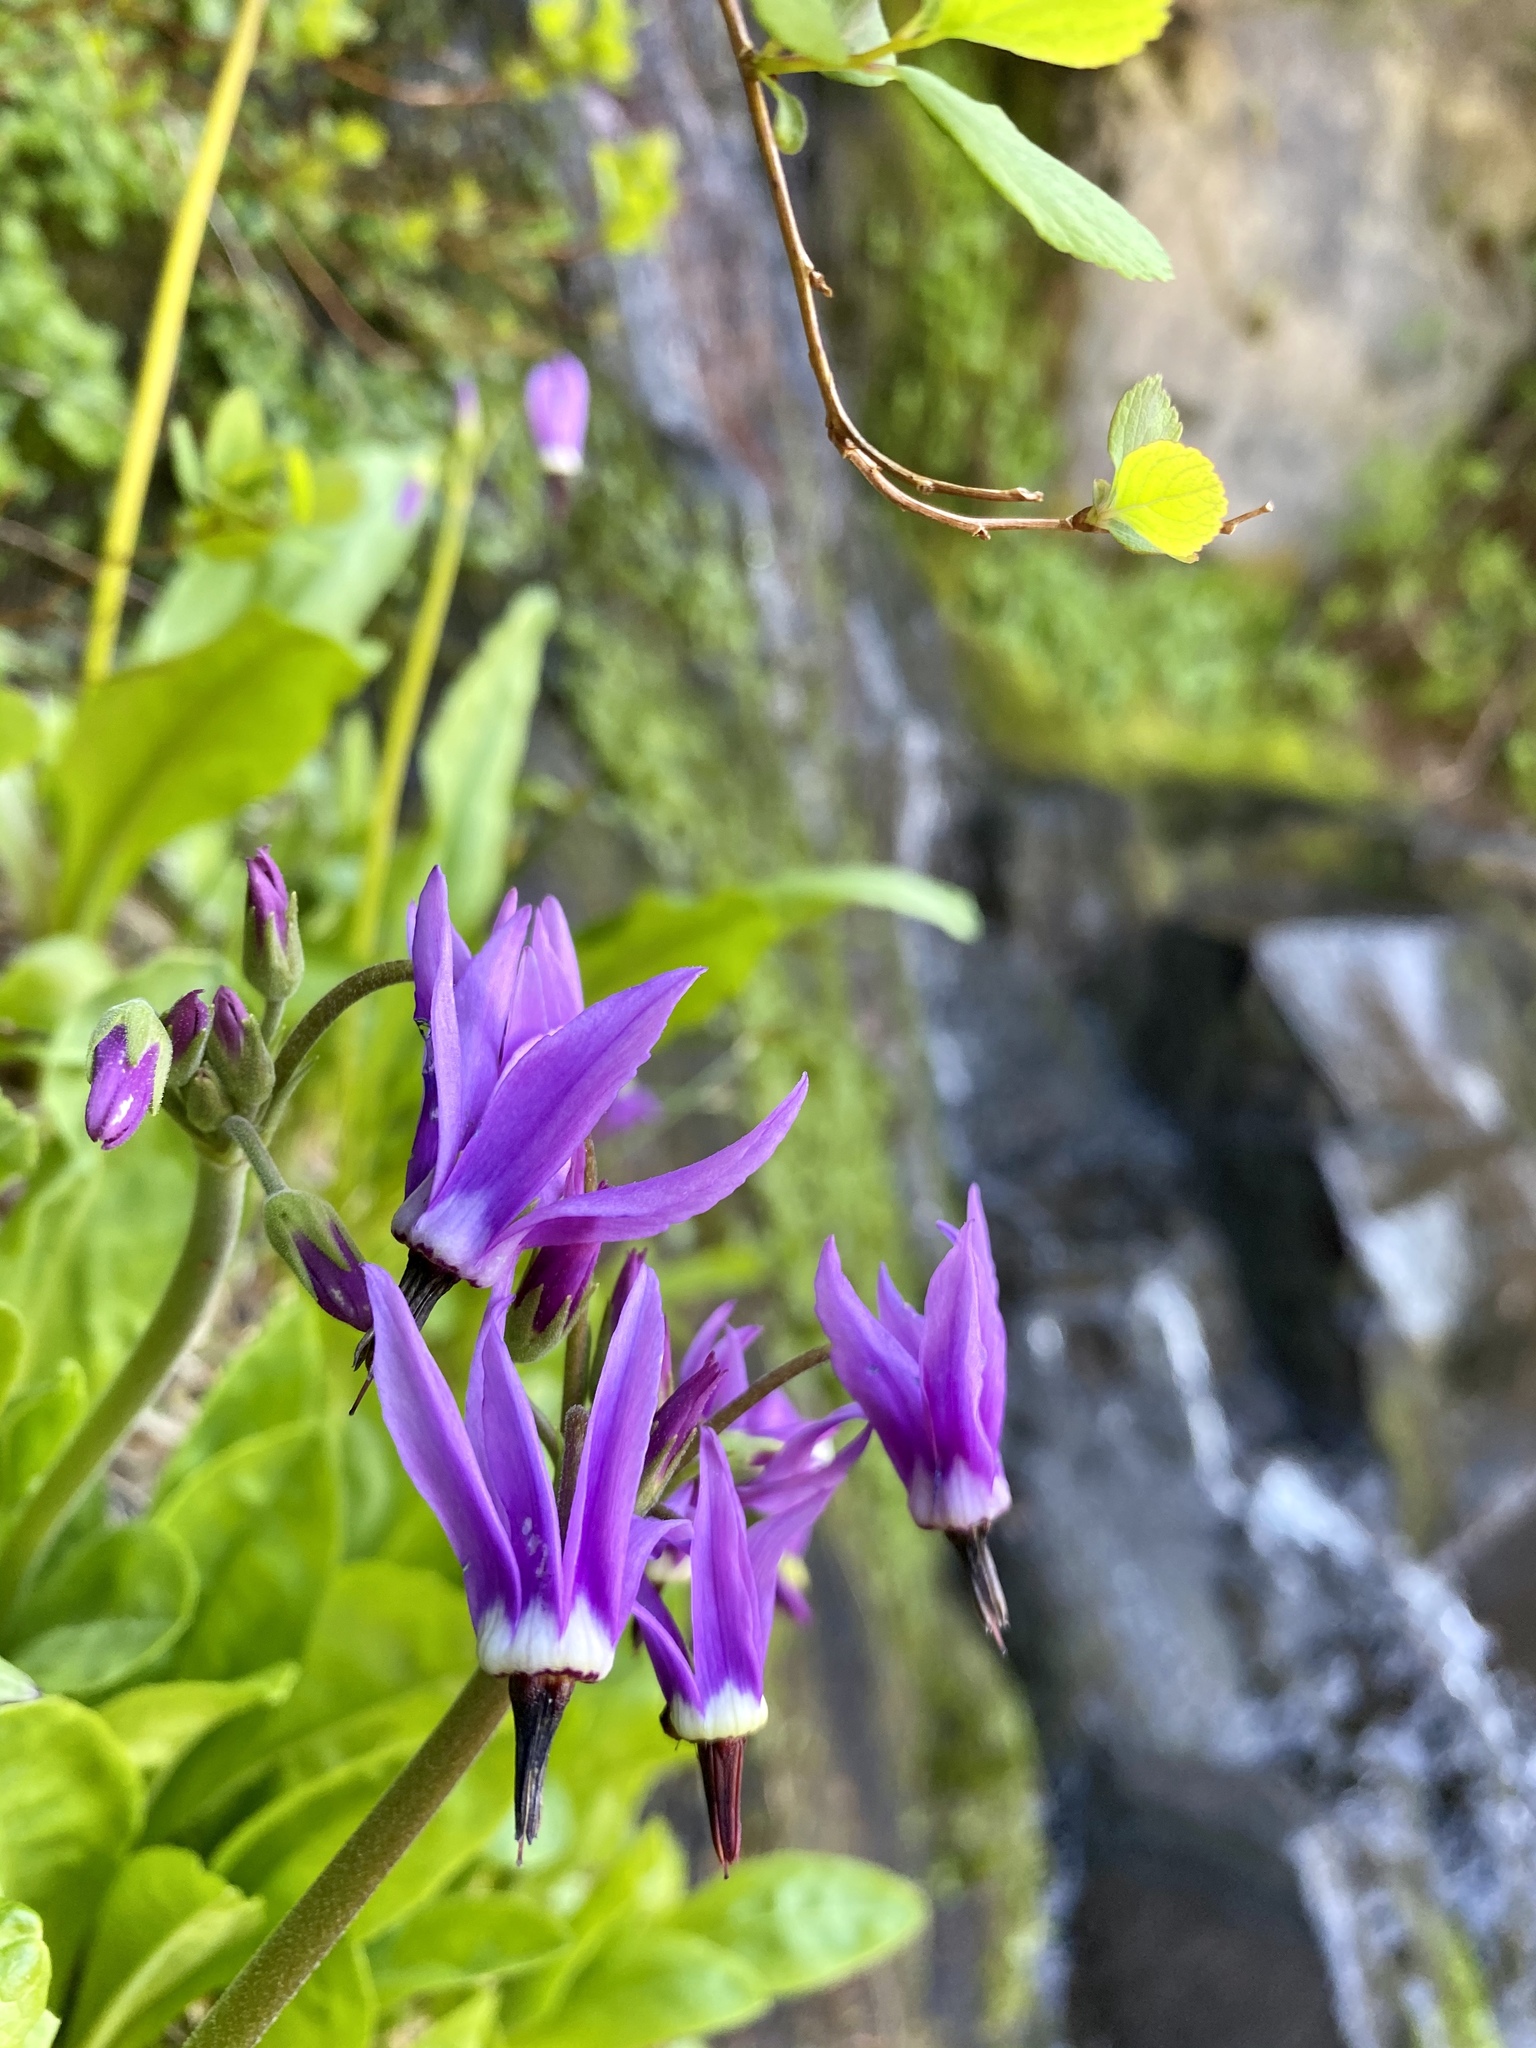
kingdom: Plantae
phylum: Tracheophyta
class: Magnoliopsida
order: Ericales
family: Primulaceae
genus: Dodecatheon
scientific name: Dodecatheon jeffreyanum
